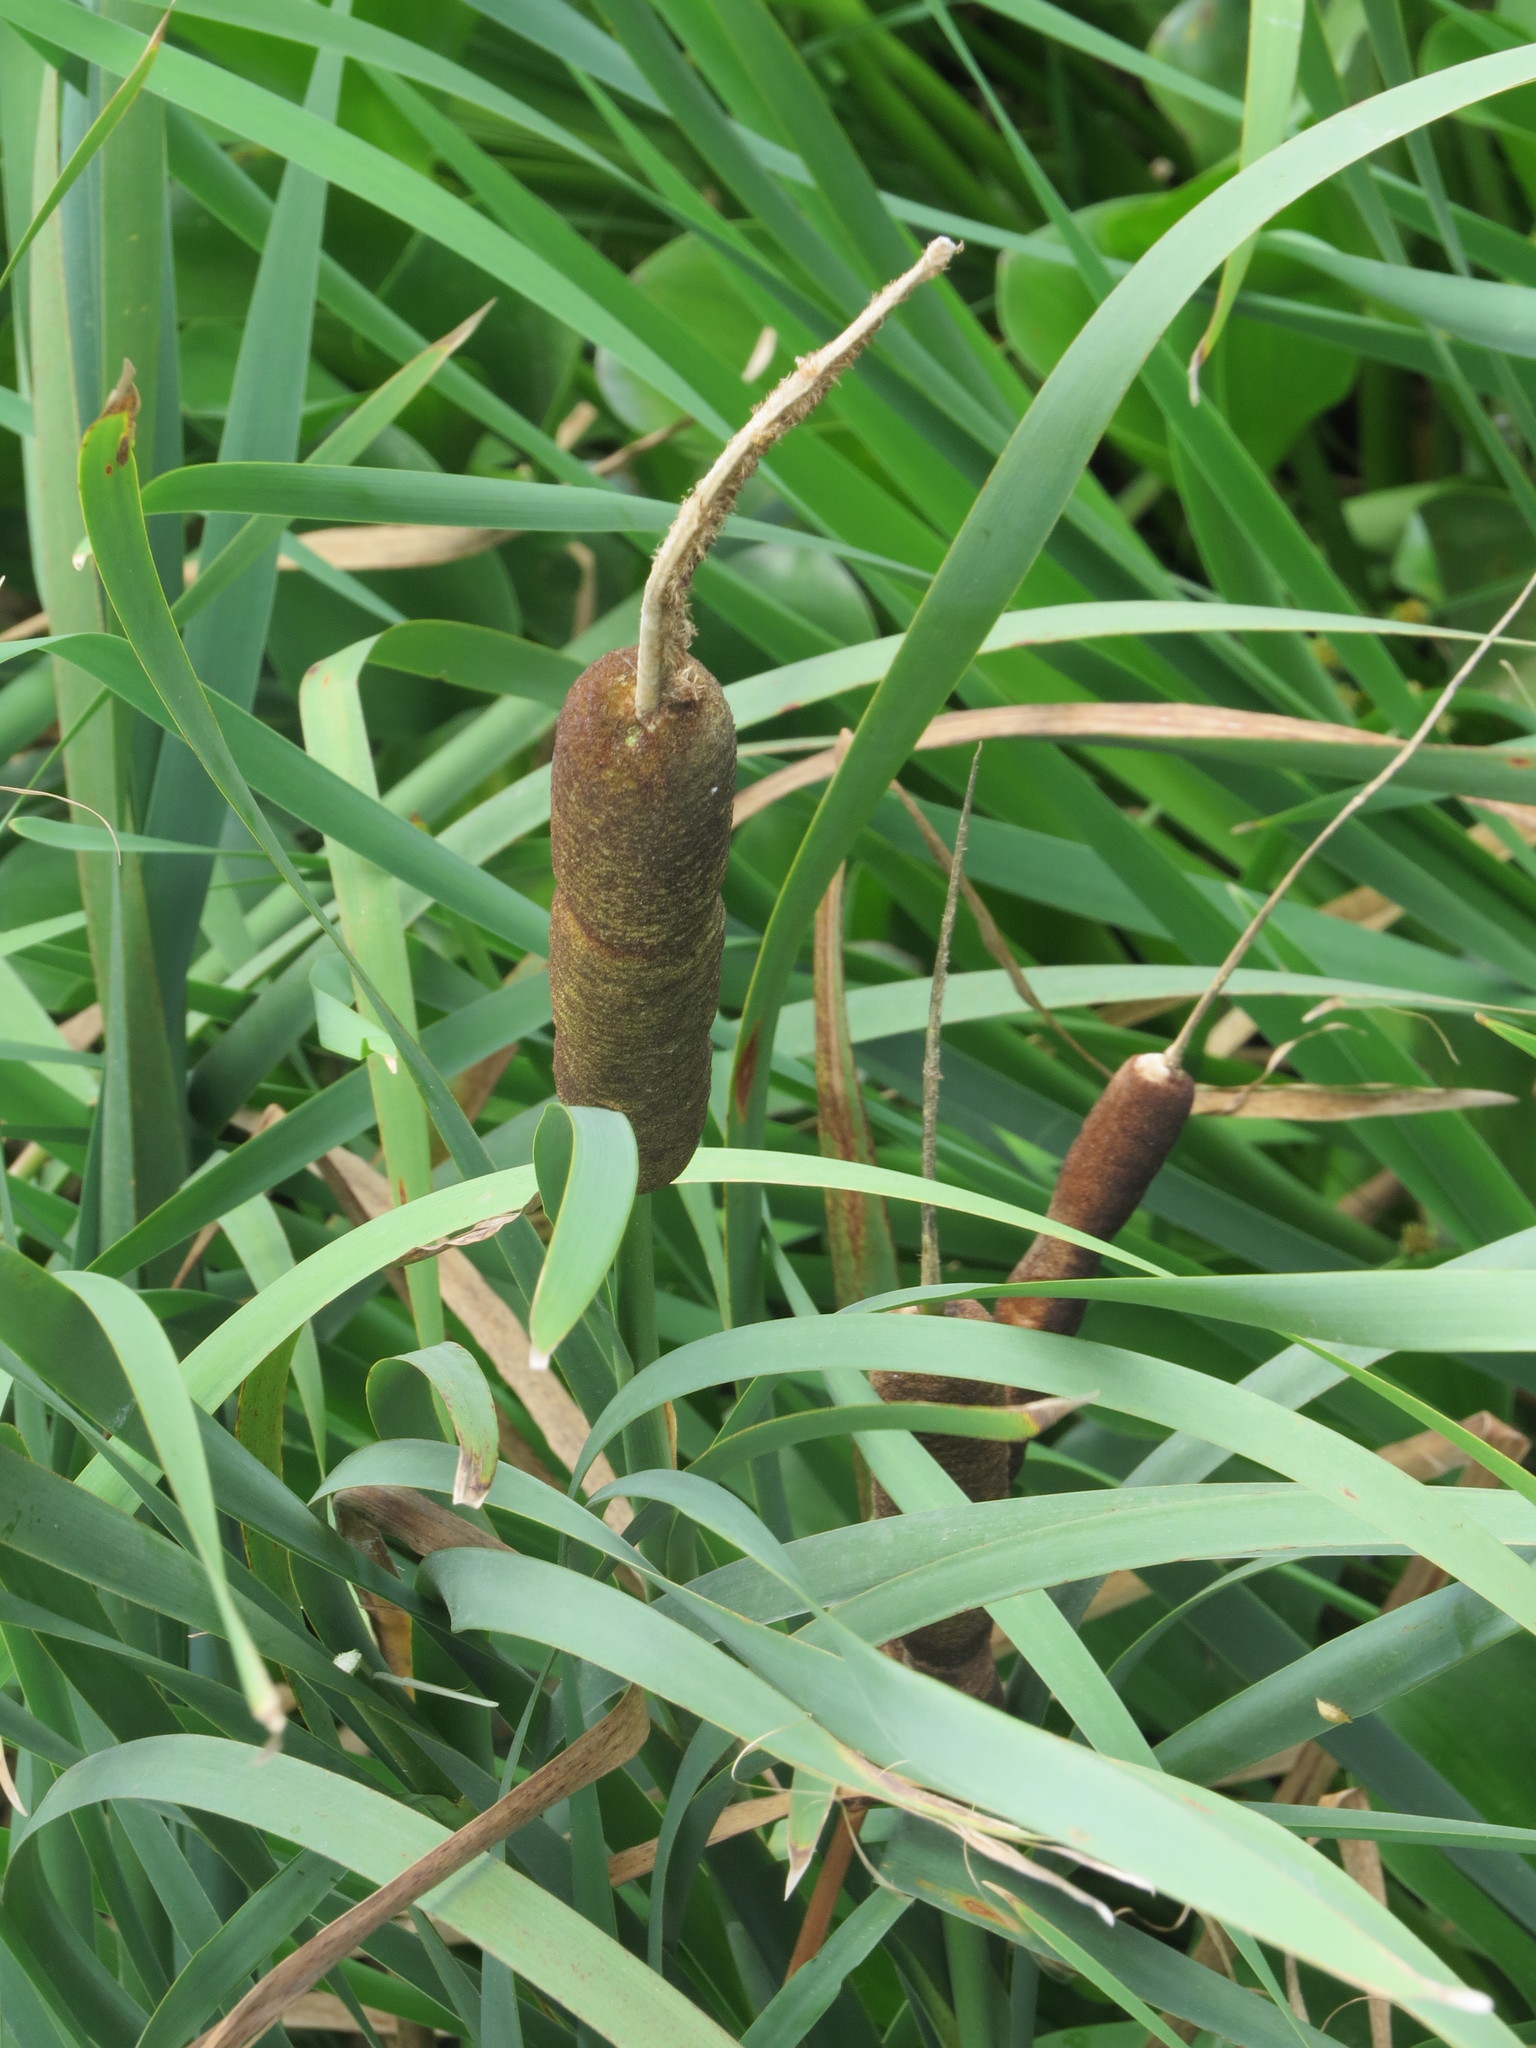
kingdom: Plantae
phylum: Tracheophyta
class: Liliopsida
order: Poales
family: Typhaceae
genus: Typha
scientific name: Typha latifolia
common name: Broadleaf cattail
